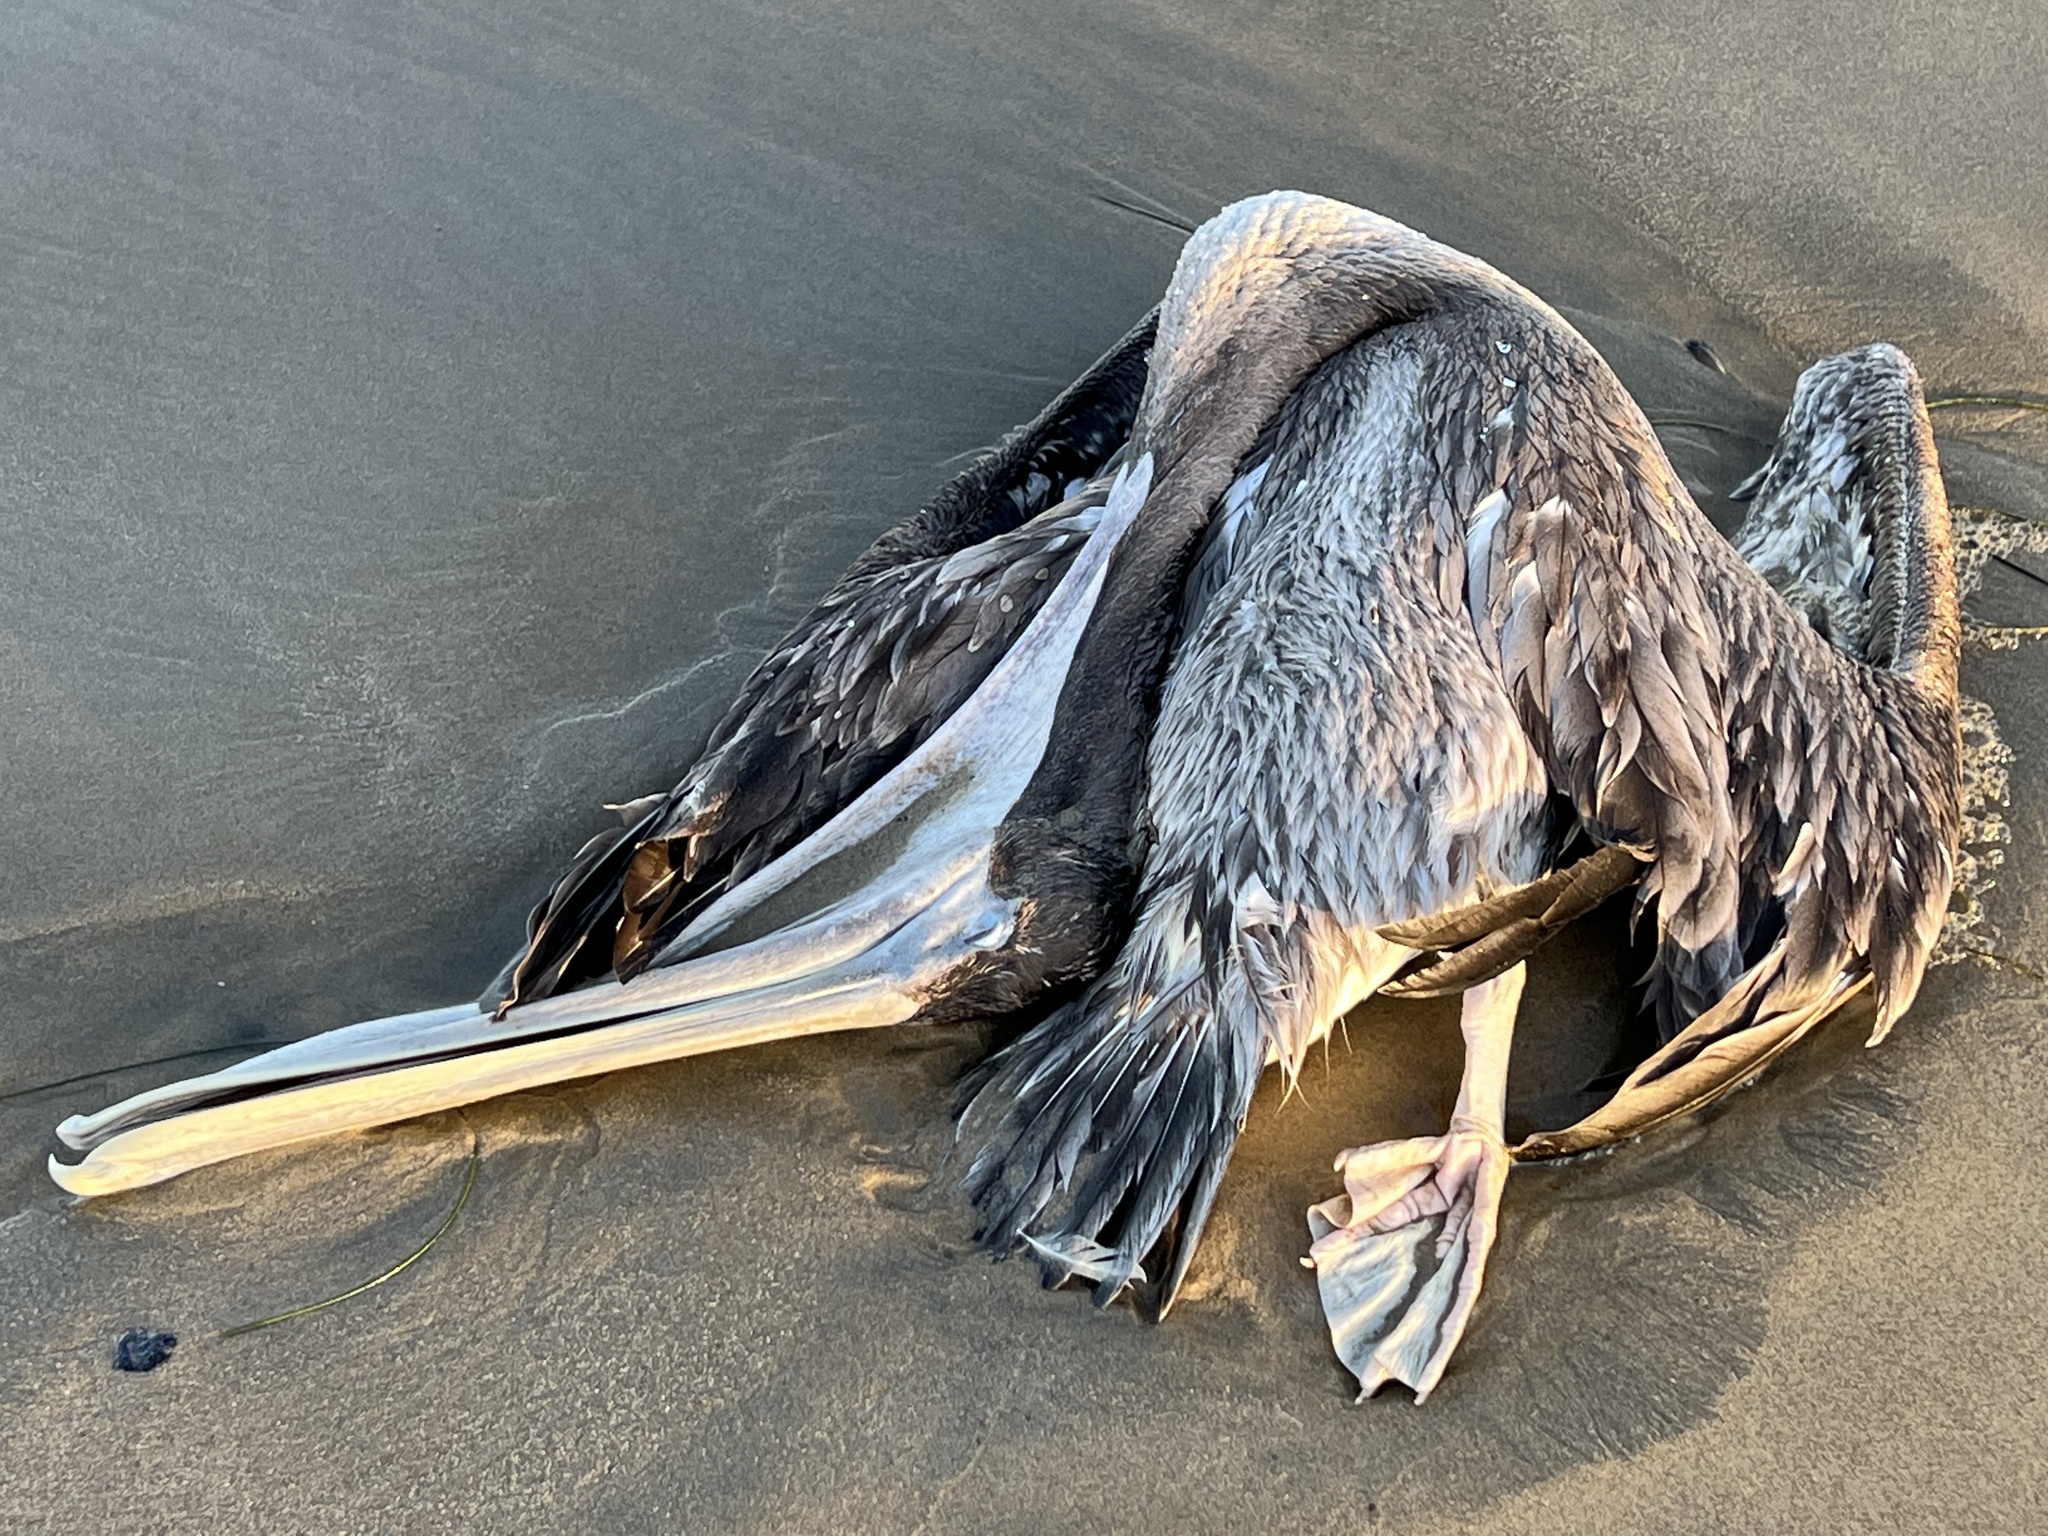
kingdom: Animalia
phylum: Chordata
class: Aves
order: Pelecaniformes
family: Pelecanidae
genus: Pelecanus
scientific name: Pelecanus occidentalis
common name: Brown pelican
